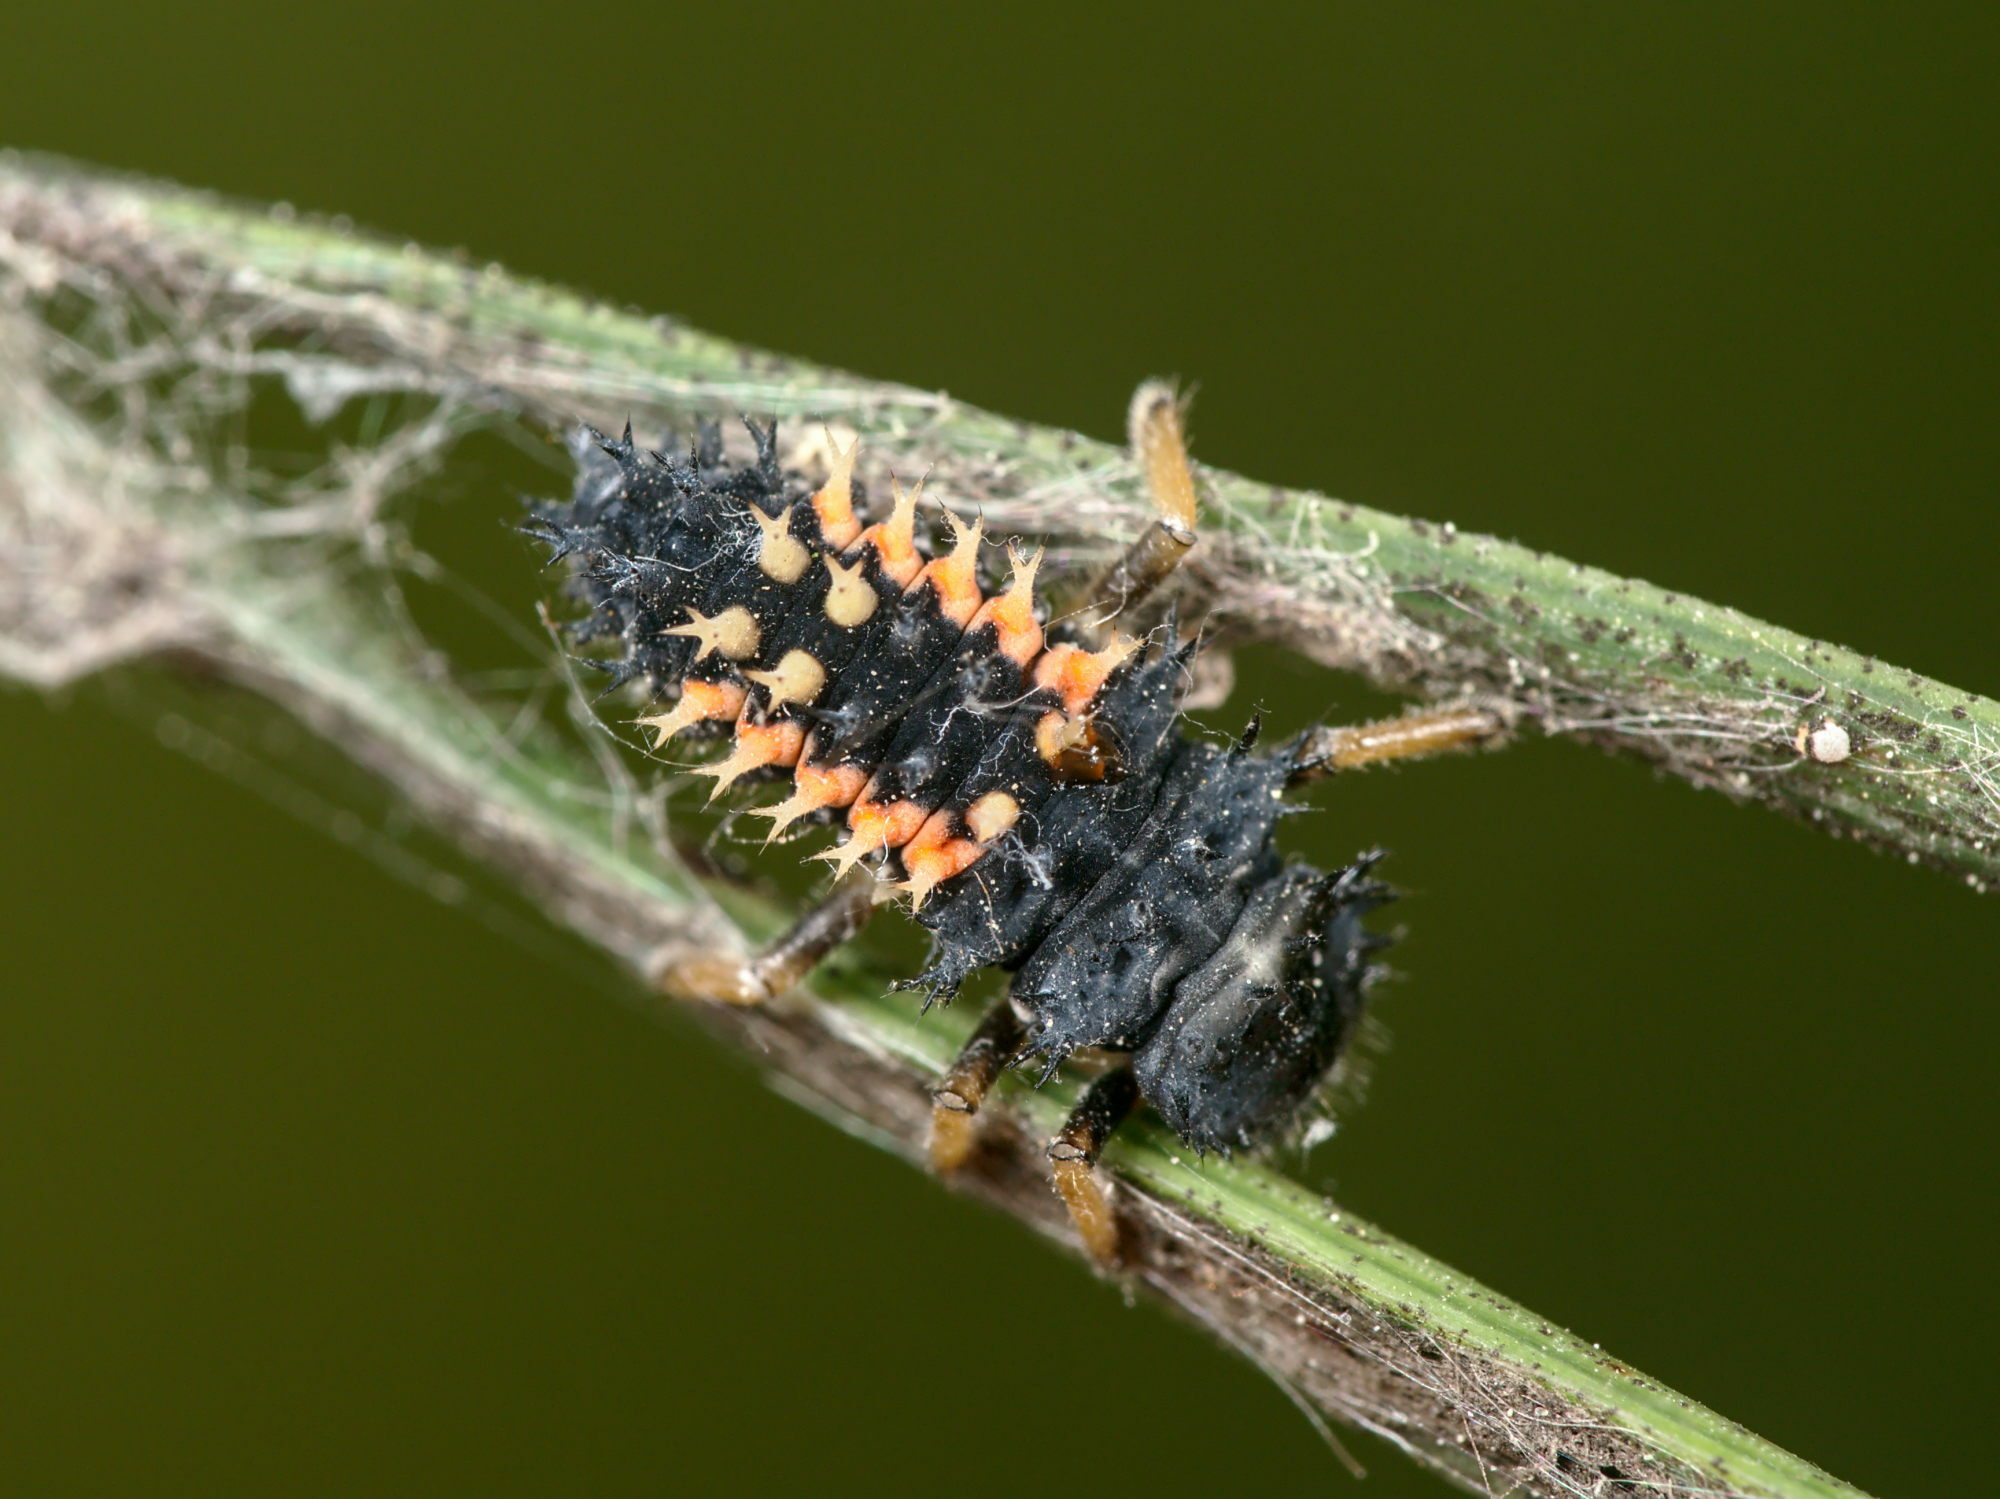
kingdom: Animalia
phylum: Arthropoda
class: Insecta
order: Coleoptera
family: Coccinellidae
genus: Harmonia
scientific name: Harmonia axyridis
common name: Harlequin ladybird
